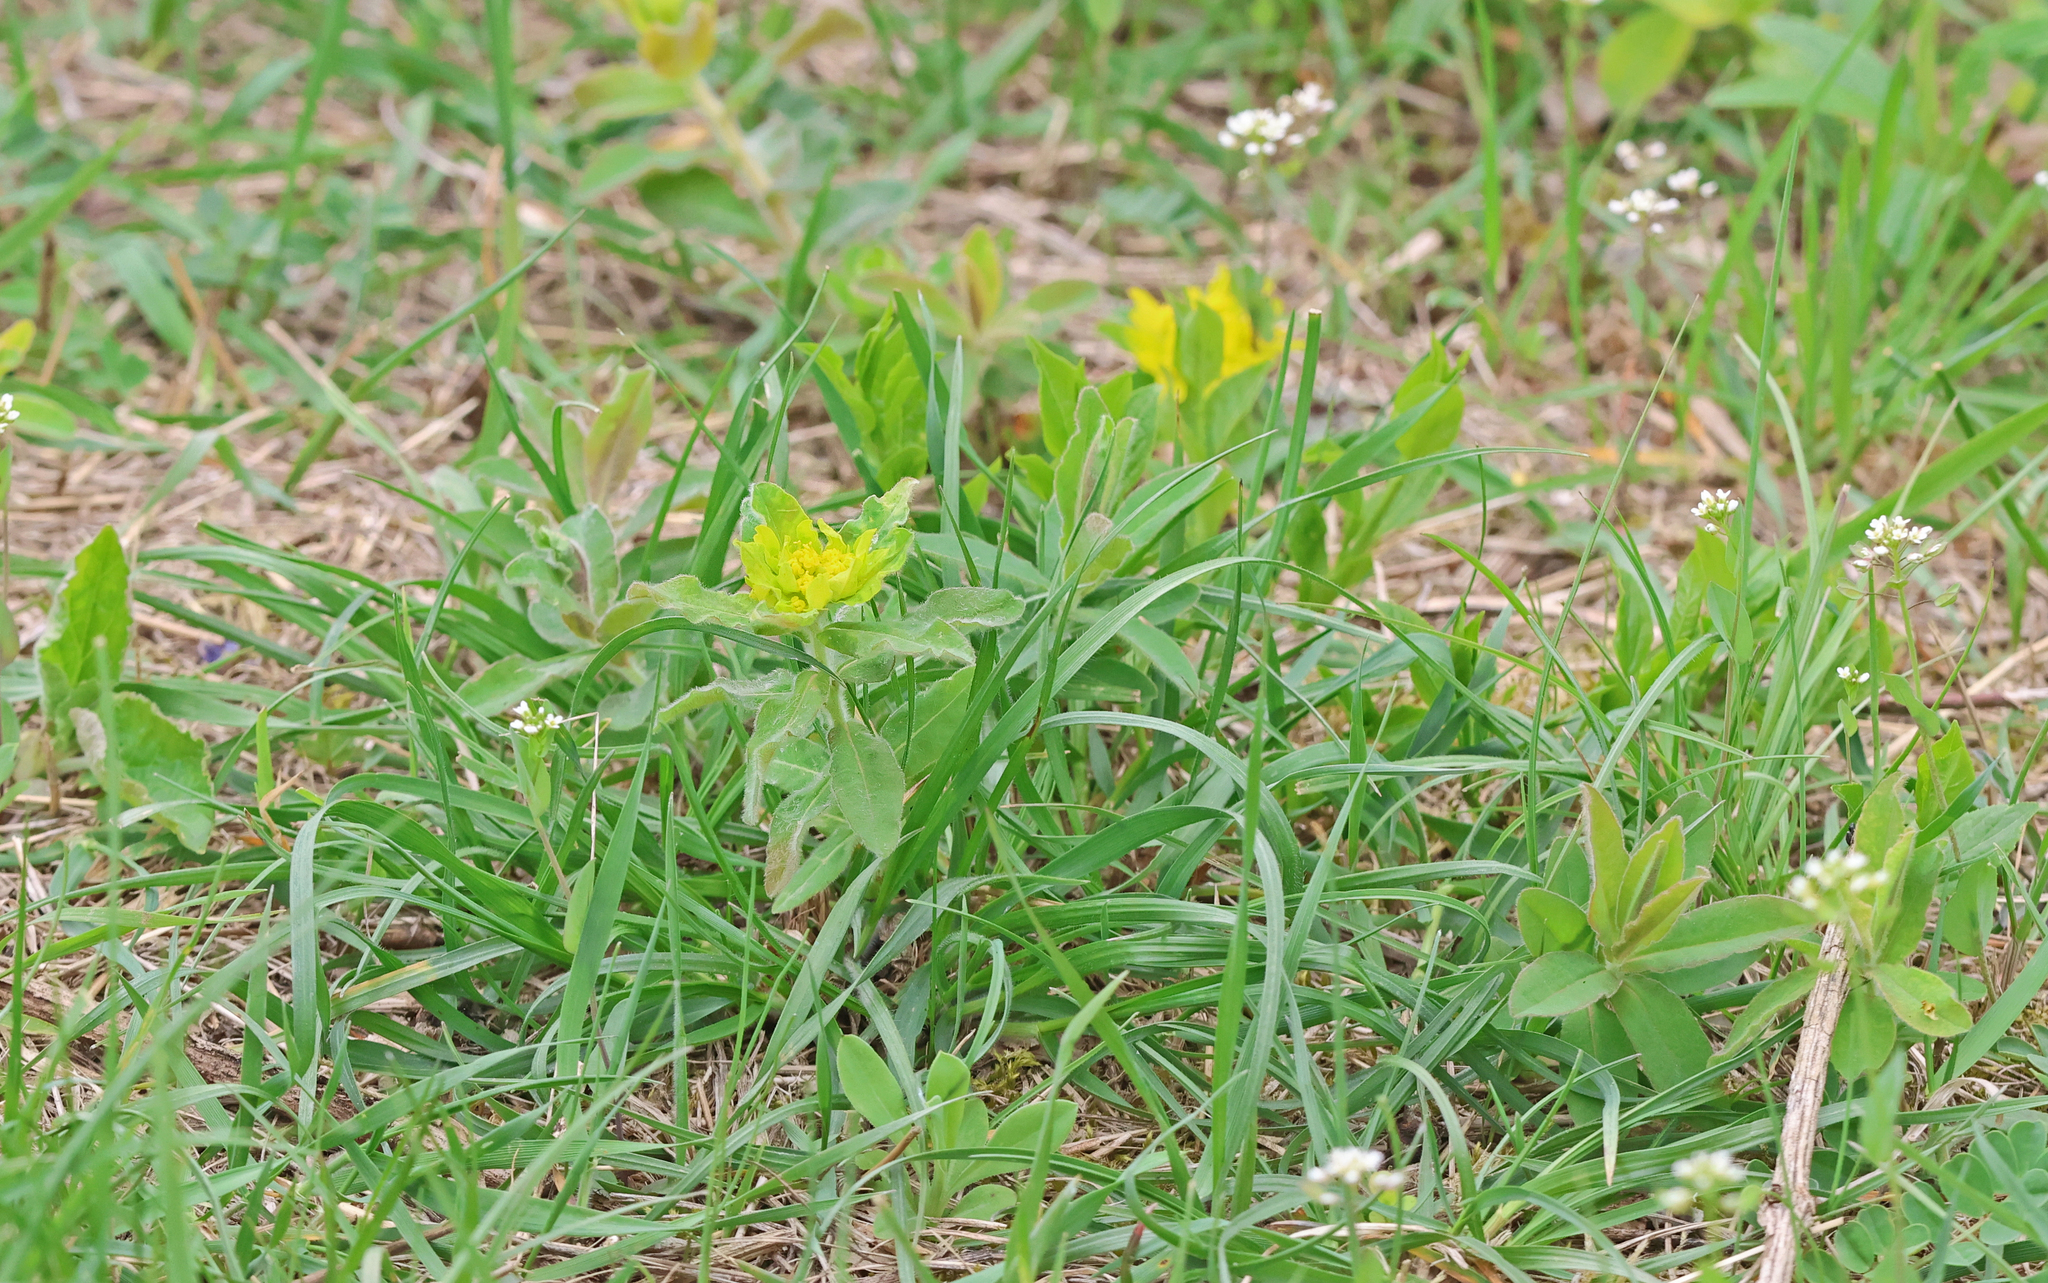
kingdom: Plantae
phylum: Tracheophyta
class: Magnoliopsida
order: Malpighiales
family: Euphorbiaceae
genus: Euphorbia
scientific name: Euphorbia epithymoides
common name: Cushion spurge
